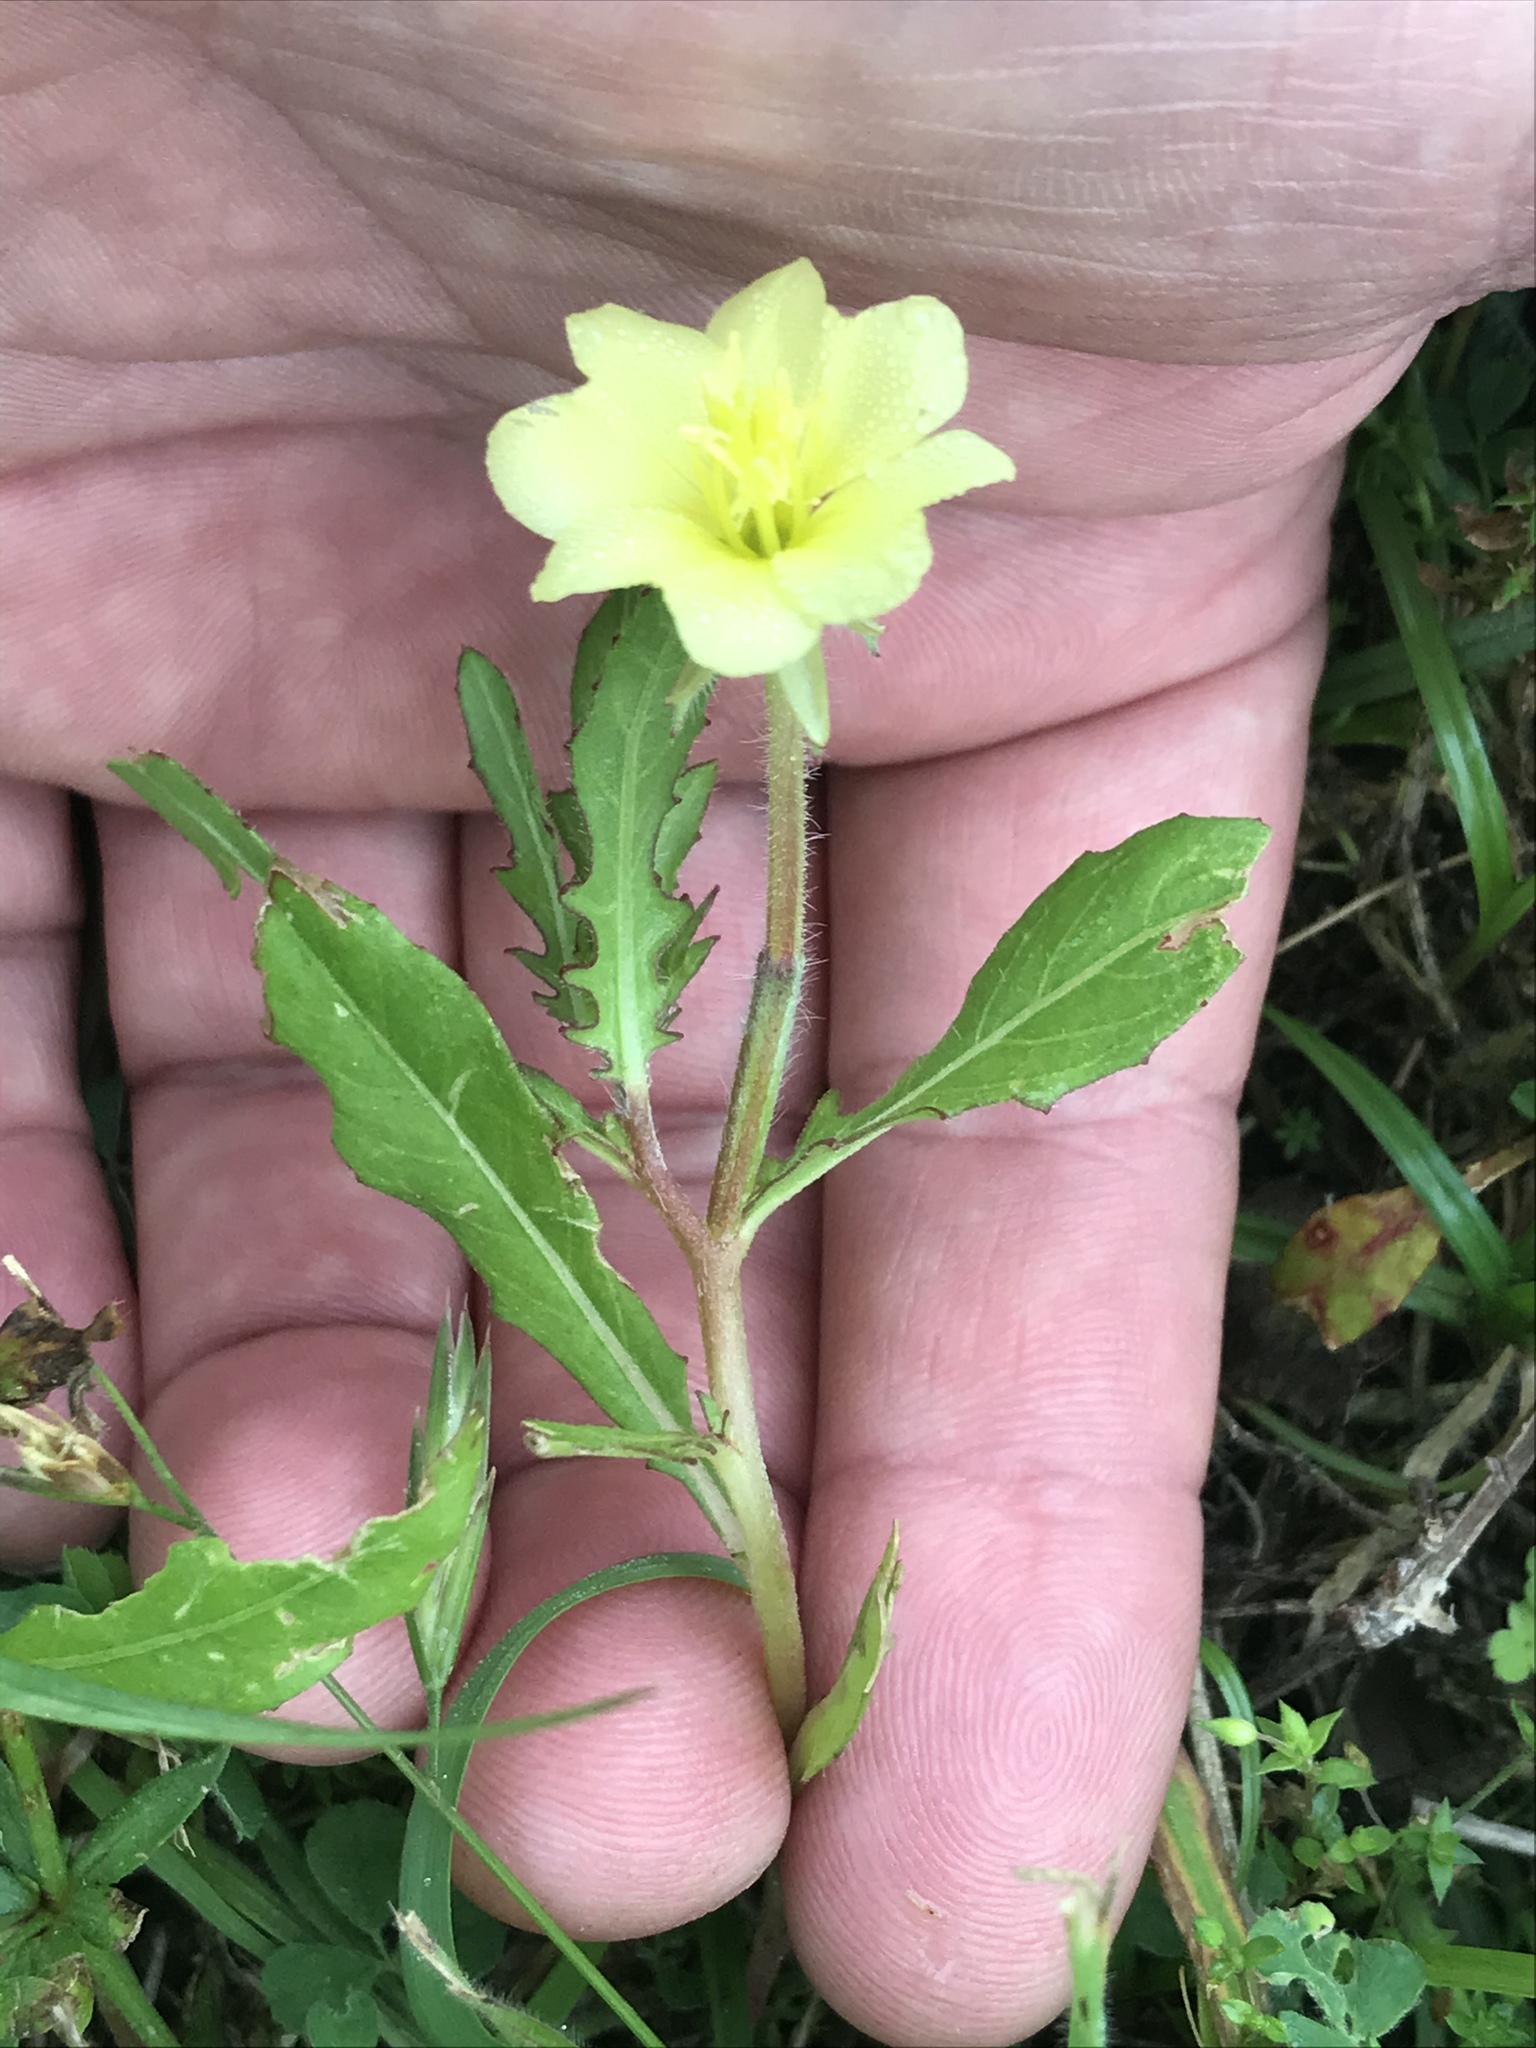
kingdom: Plantae
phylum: Tracheophyta
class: Magnoliopsida
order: Myrtales
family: Onagraceae
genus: Oenothera
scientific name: Oenothera laciniata
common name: Cut-leaved evening-primrose
